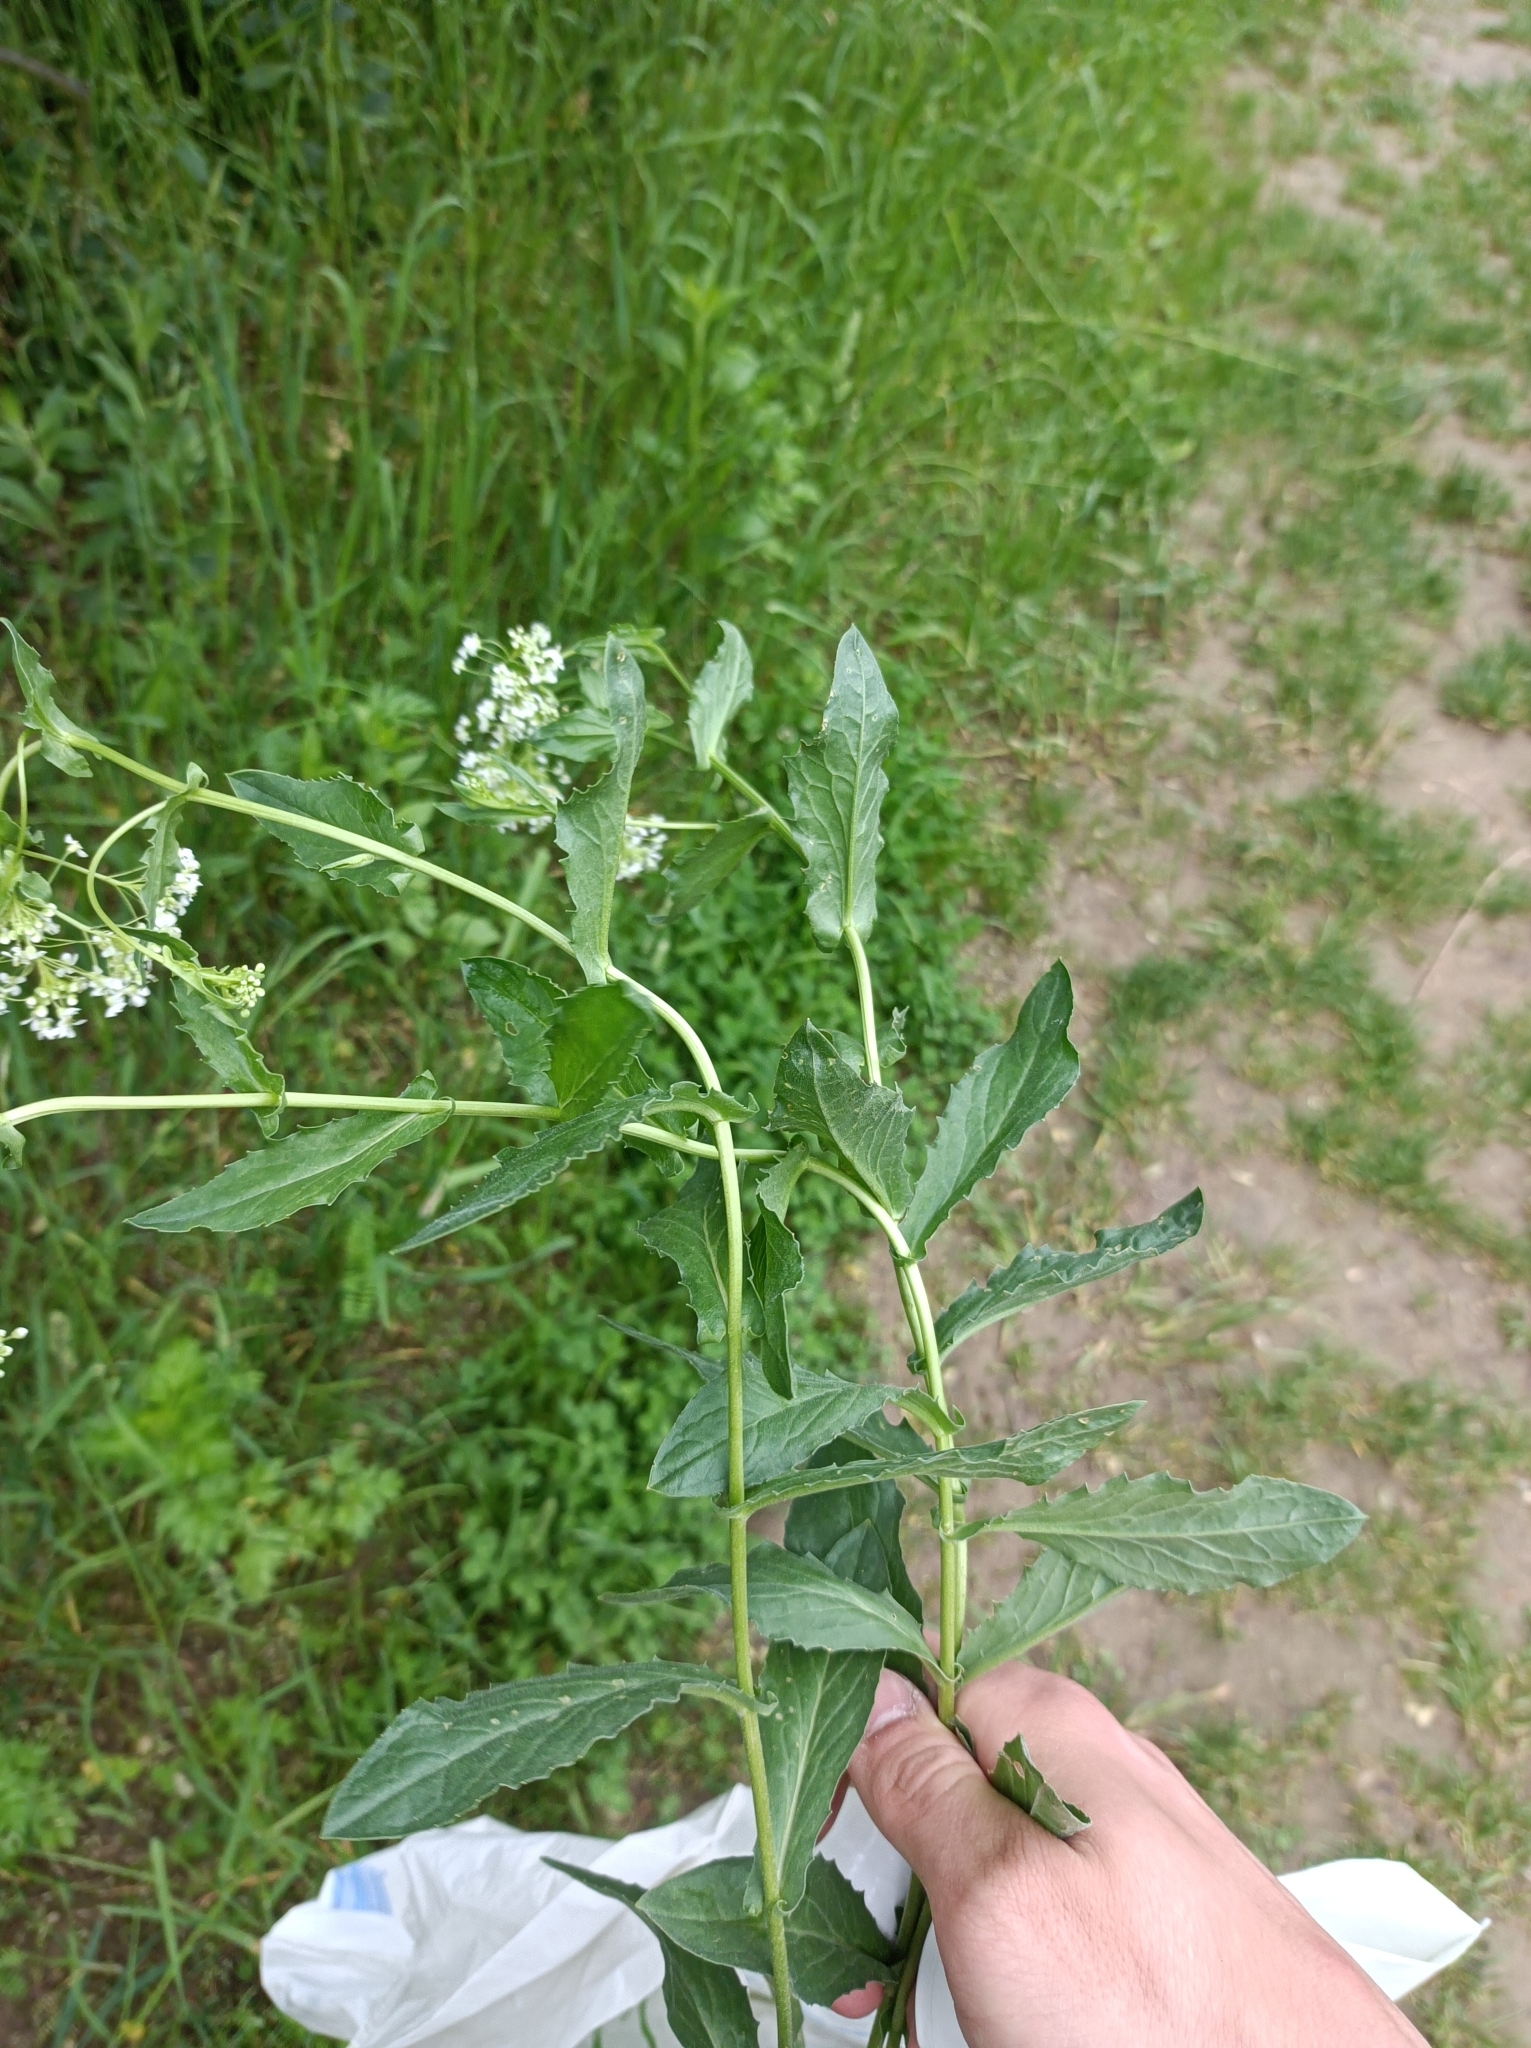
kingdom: Plantae
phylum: Tracheophyta
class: Magnoliopsida
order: Brassicales
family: Brassicaceae
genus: Lepidium
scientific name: Lepidium draba
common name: Hoary cress
